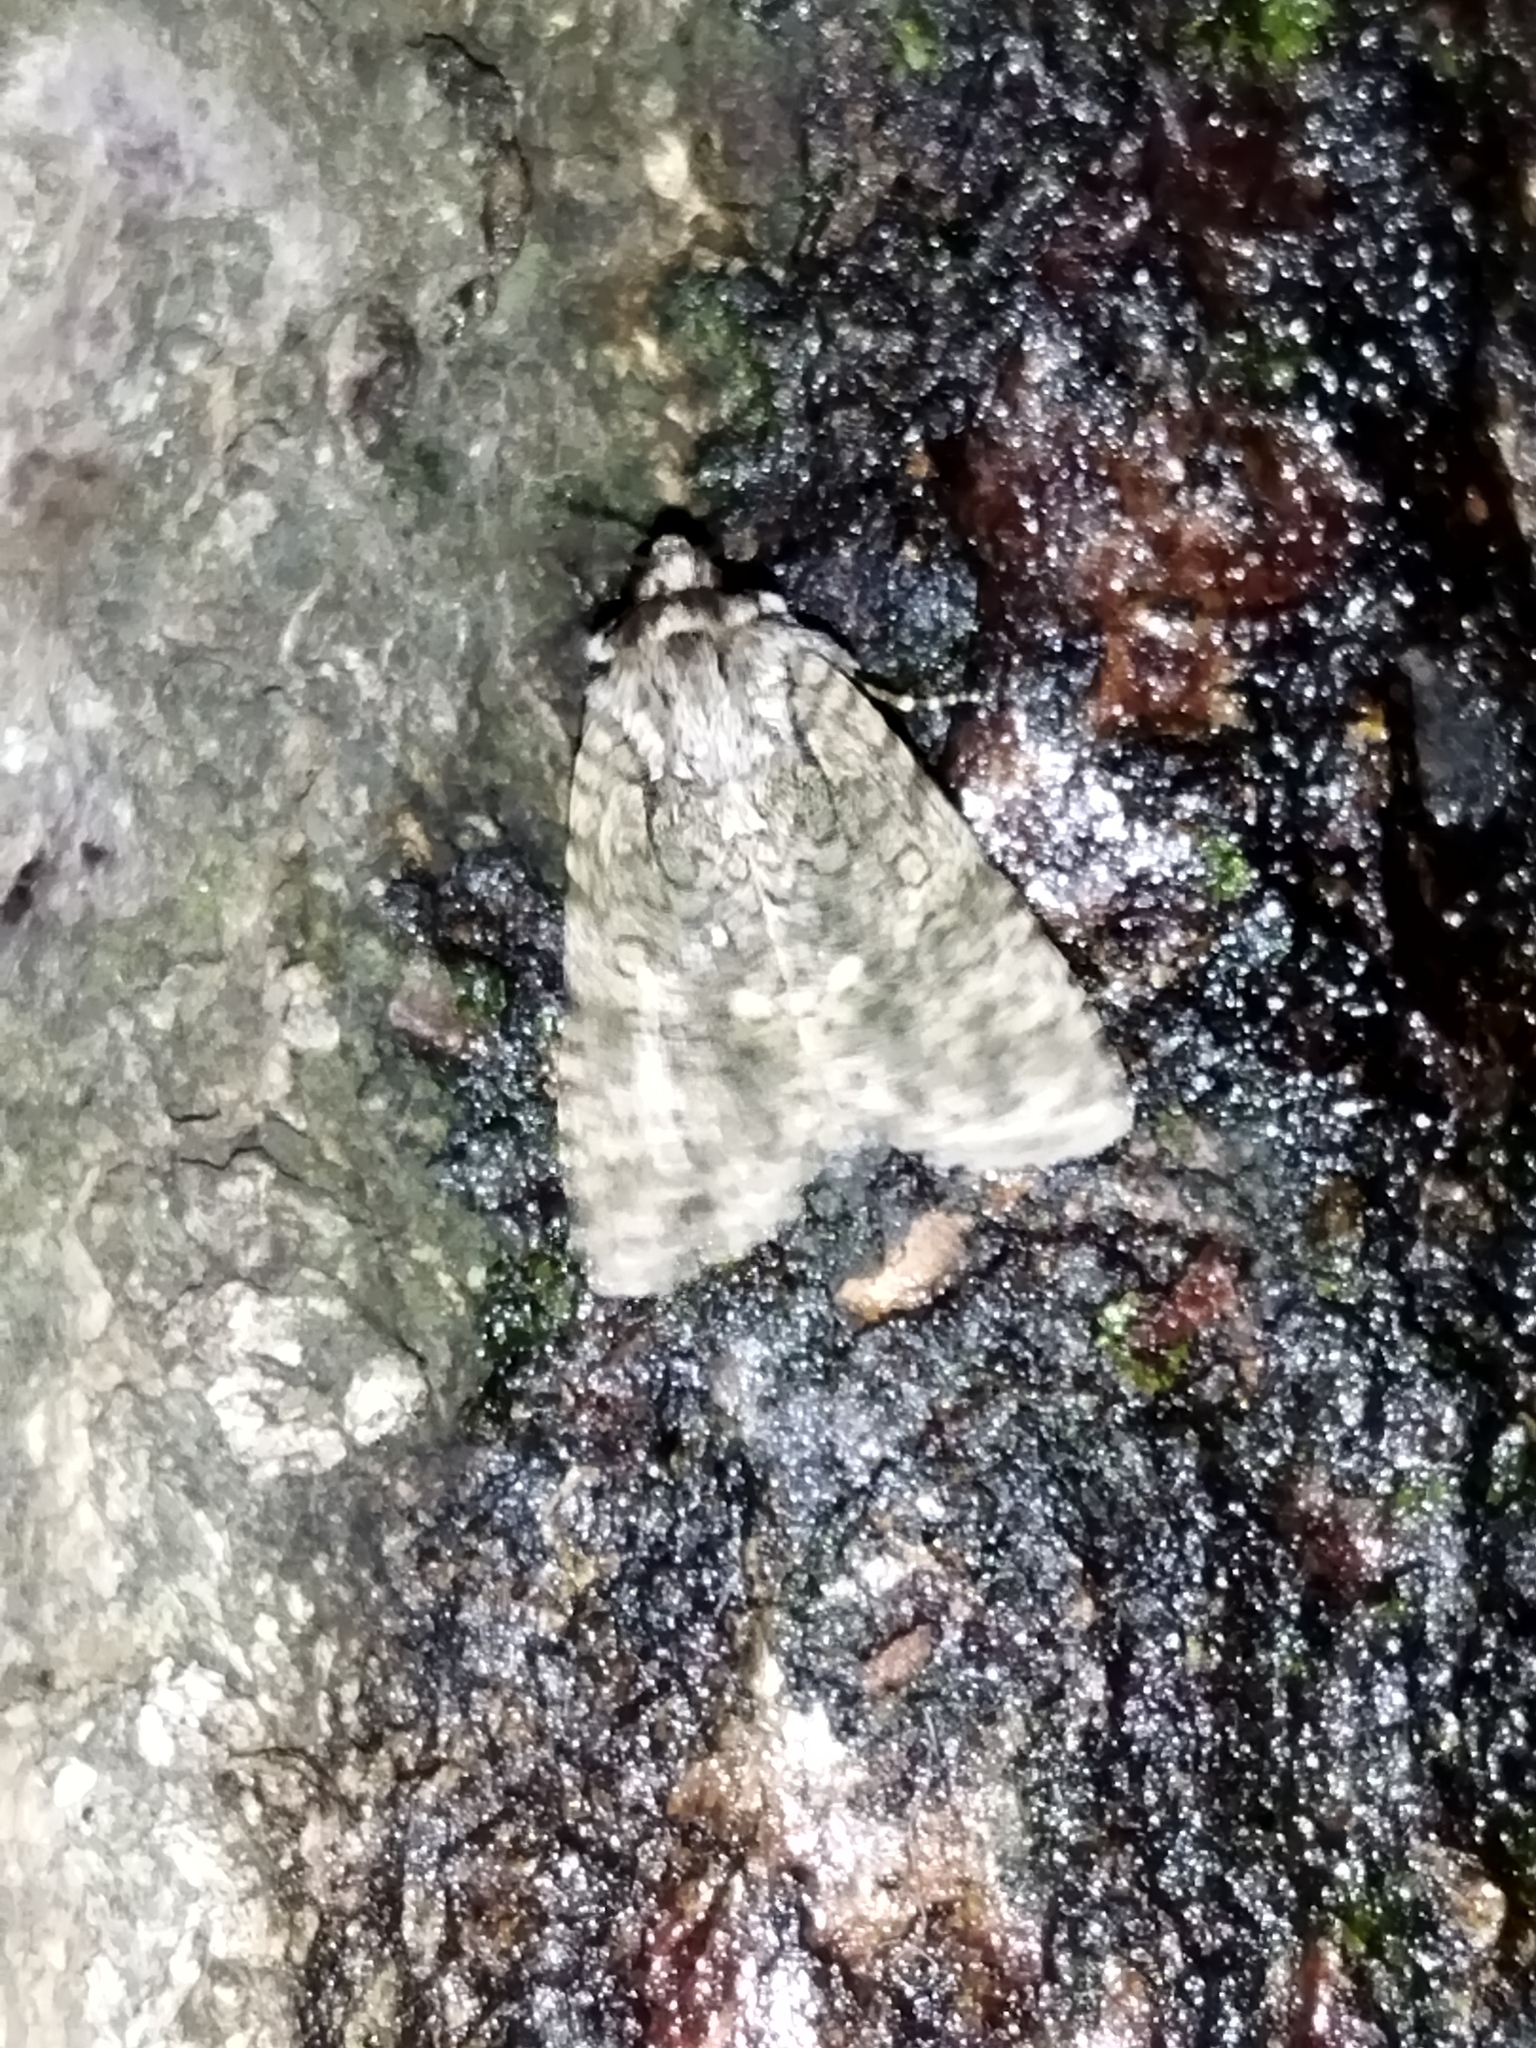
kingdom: Animalia
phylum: Arthropoda
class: Insecta
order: Lepidoptera
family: Noctuidae
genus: Acronicta
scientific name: Acronicta rumicis
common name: Knot grass
